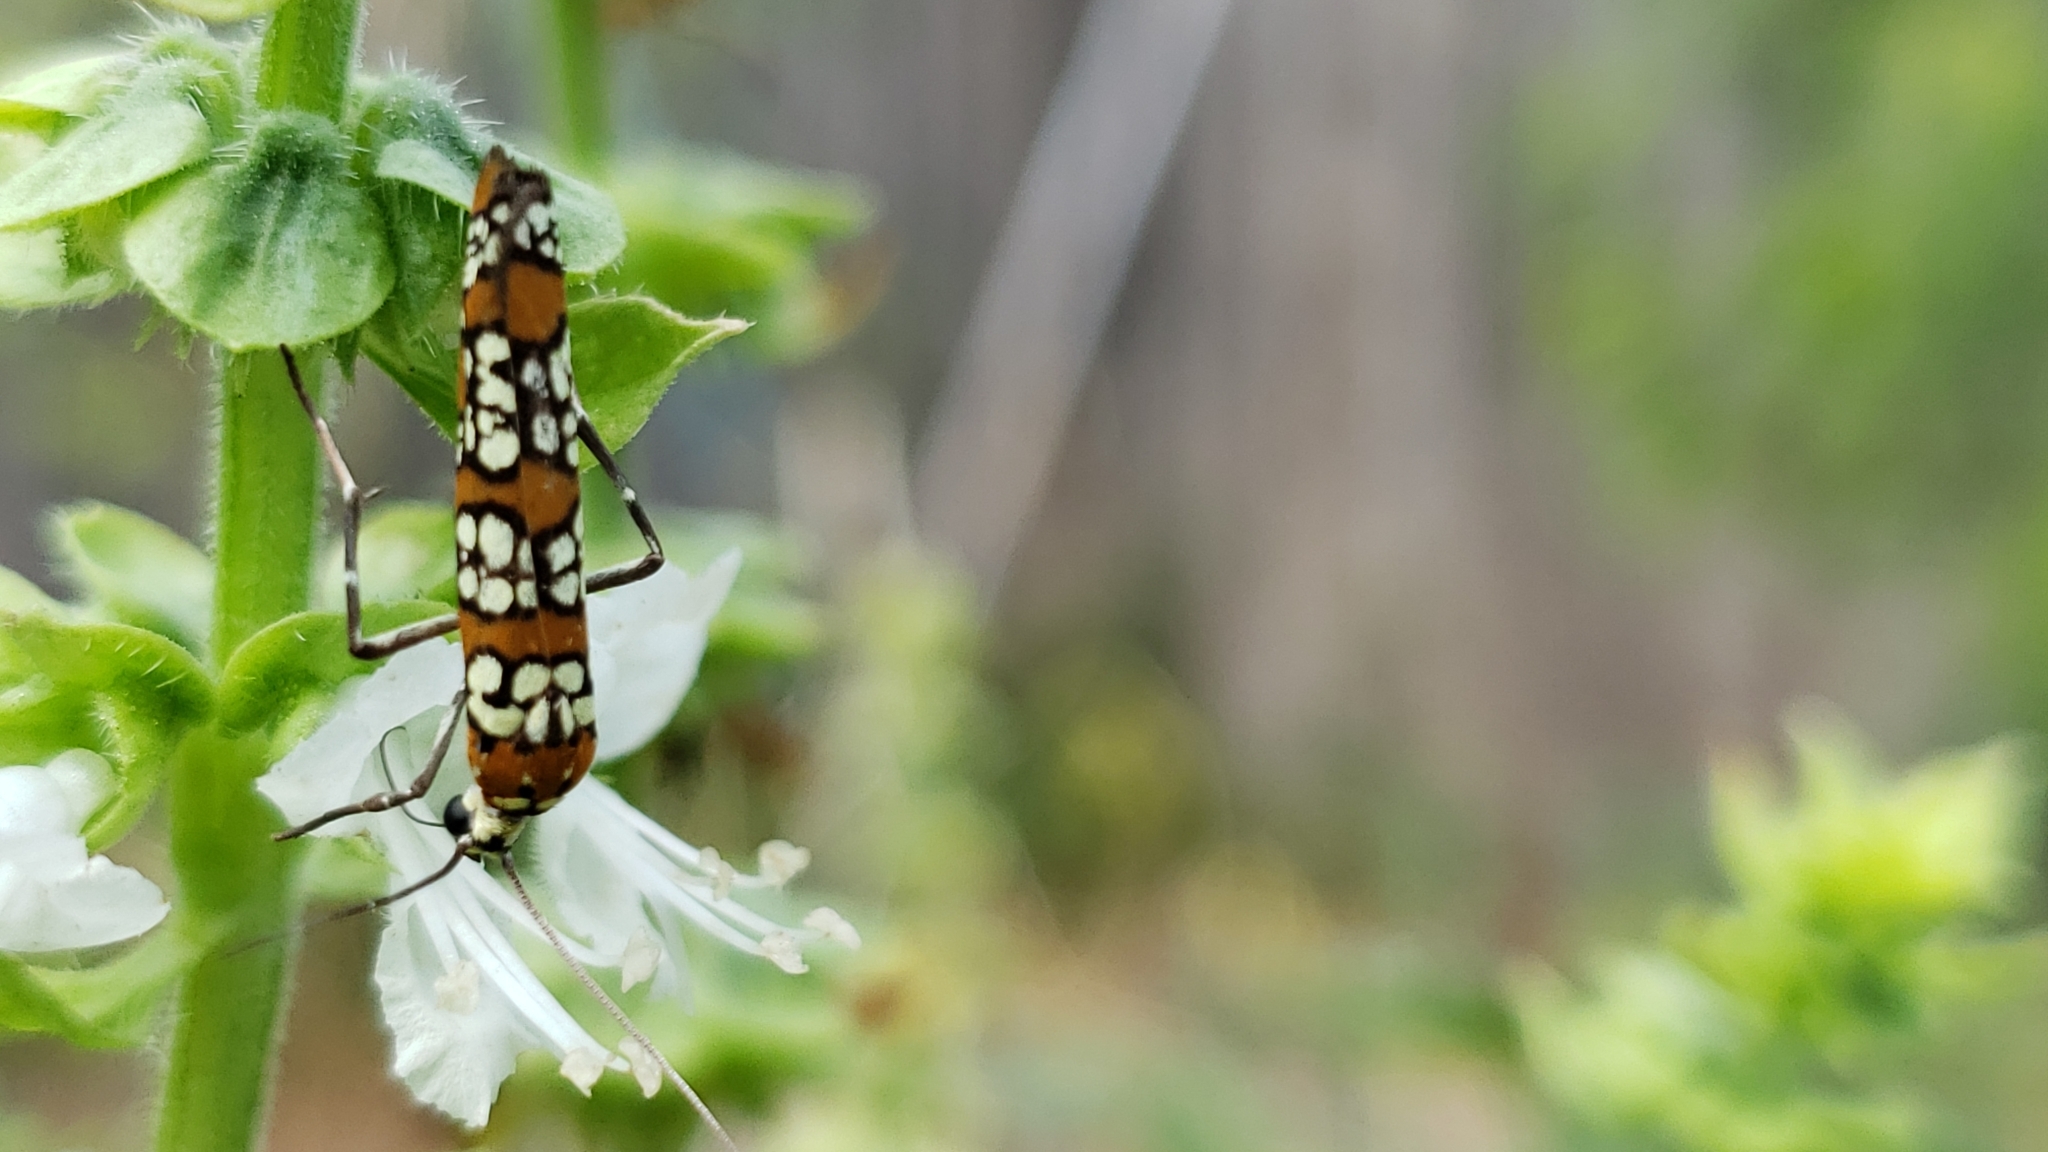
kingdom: Animalia
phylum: Arthropoda
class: Insecta
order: Lepidoptera
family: Attevidae
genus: Atteva
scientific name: Atteva punctella
